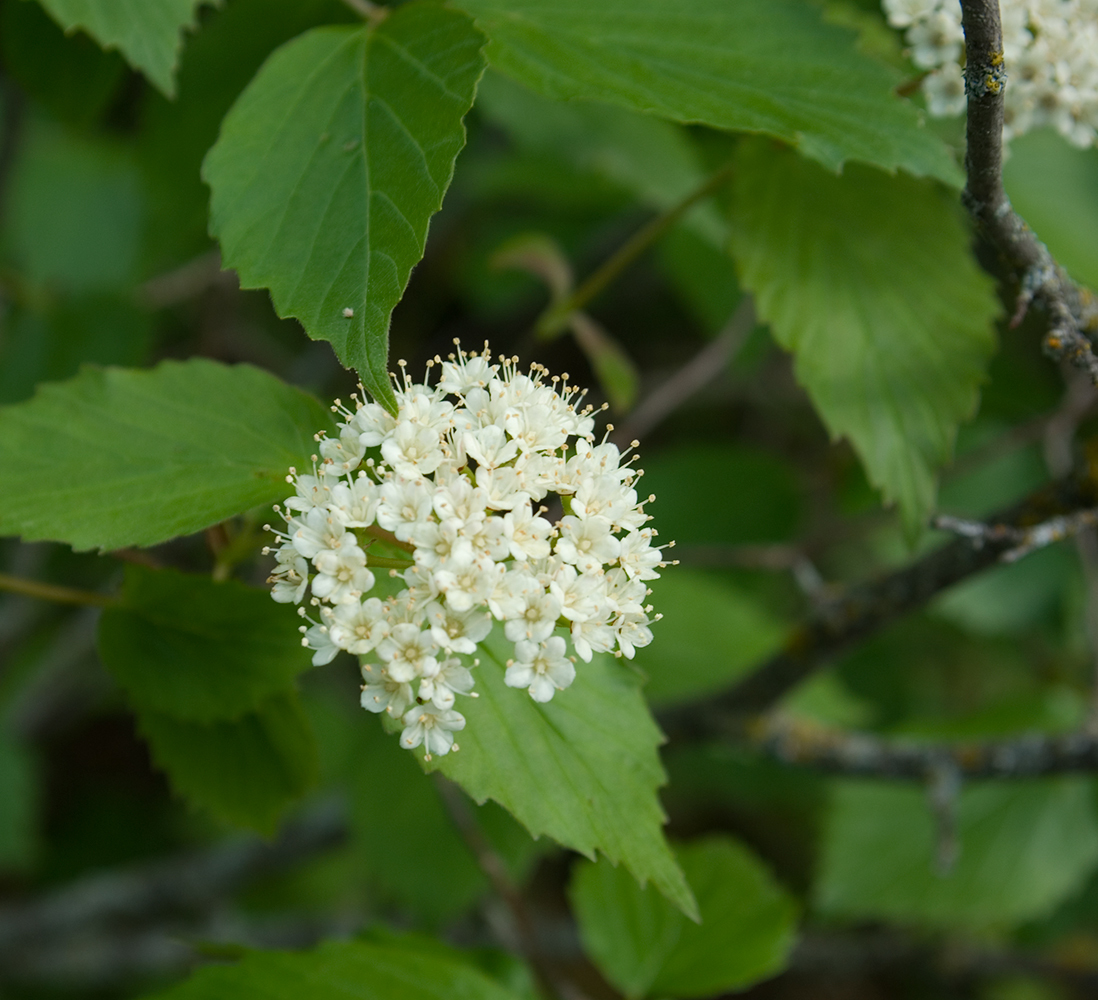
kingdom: Plantae
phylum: Tracheophyta
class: Magnoliopsida
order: Dipsacales
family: Viburnaceae
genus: Viburnum
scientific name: Viburnum rafinesqueanum
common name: Downy arrow-wood
